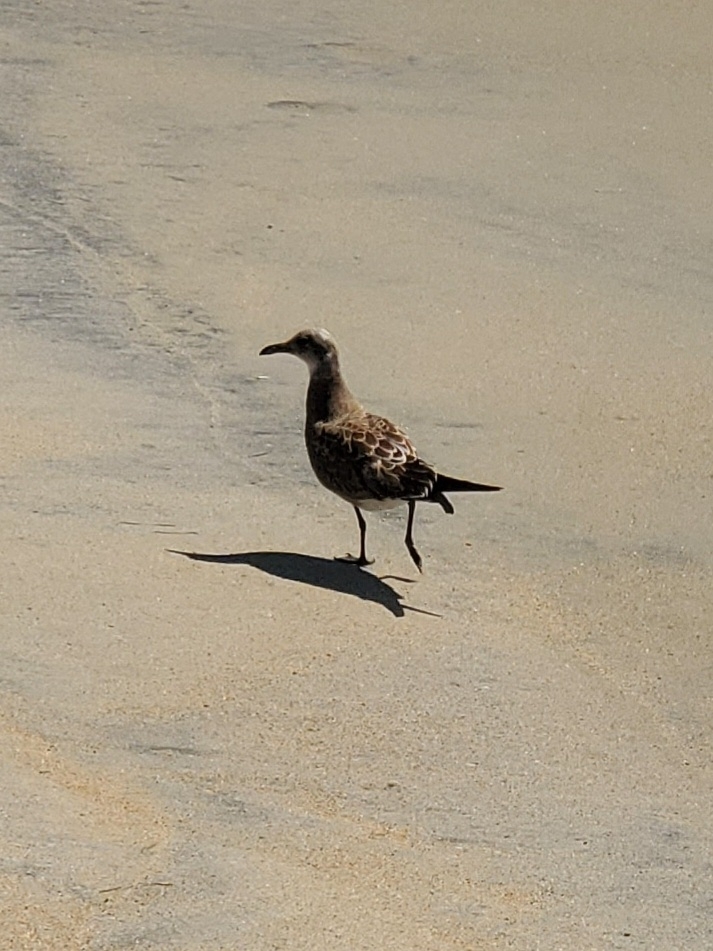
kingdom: Animalia
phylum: Chordata
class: Aves
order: Charadriiformes
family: Laridae
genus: Leucophaeus
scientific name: Leucophaeus atricilla
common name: Laughing gull
